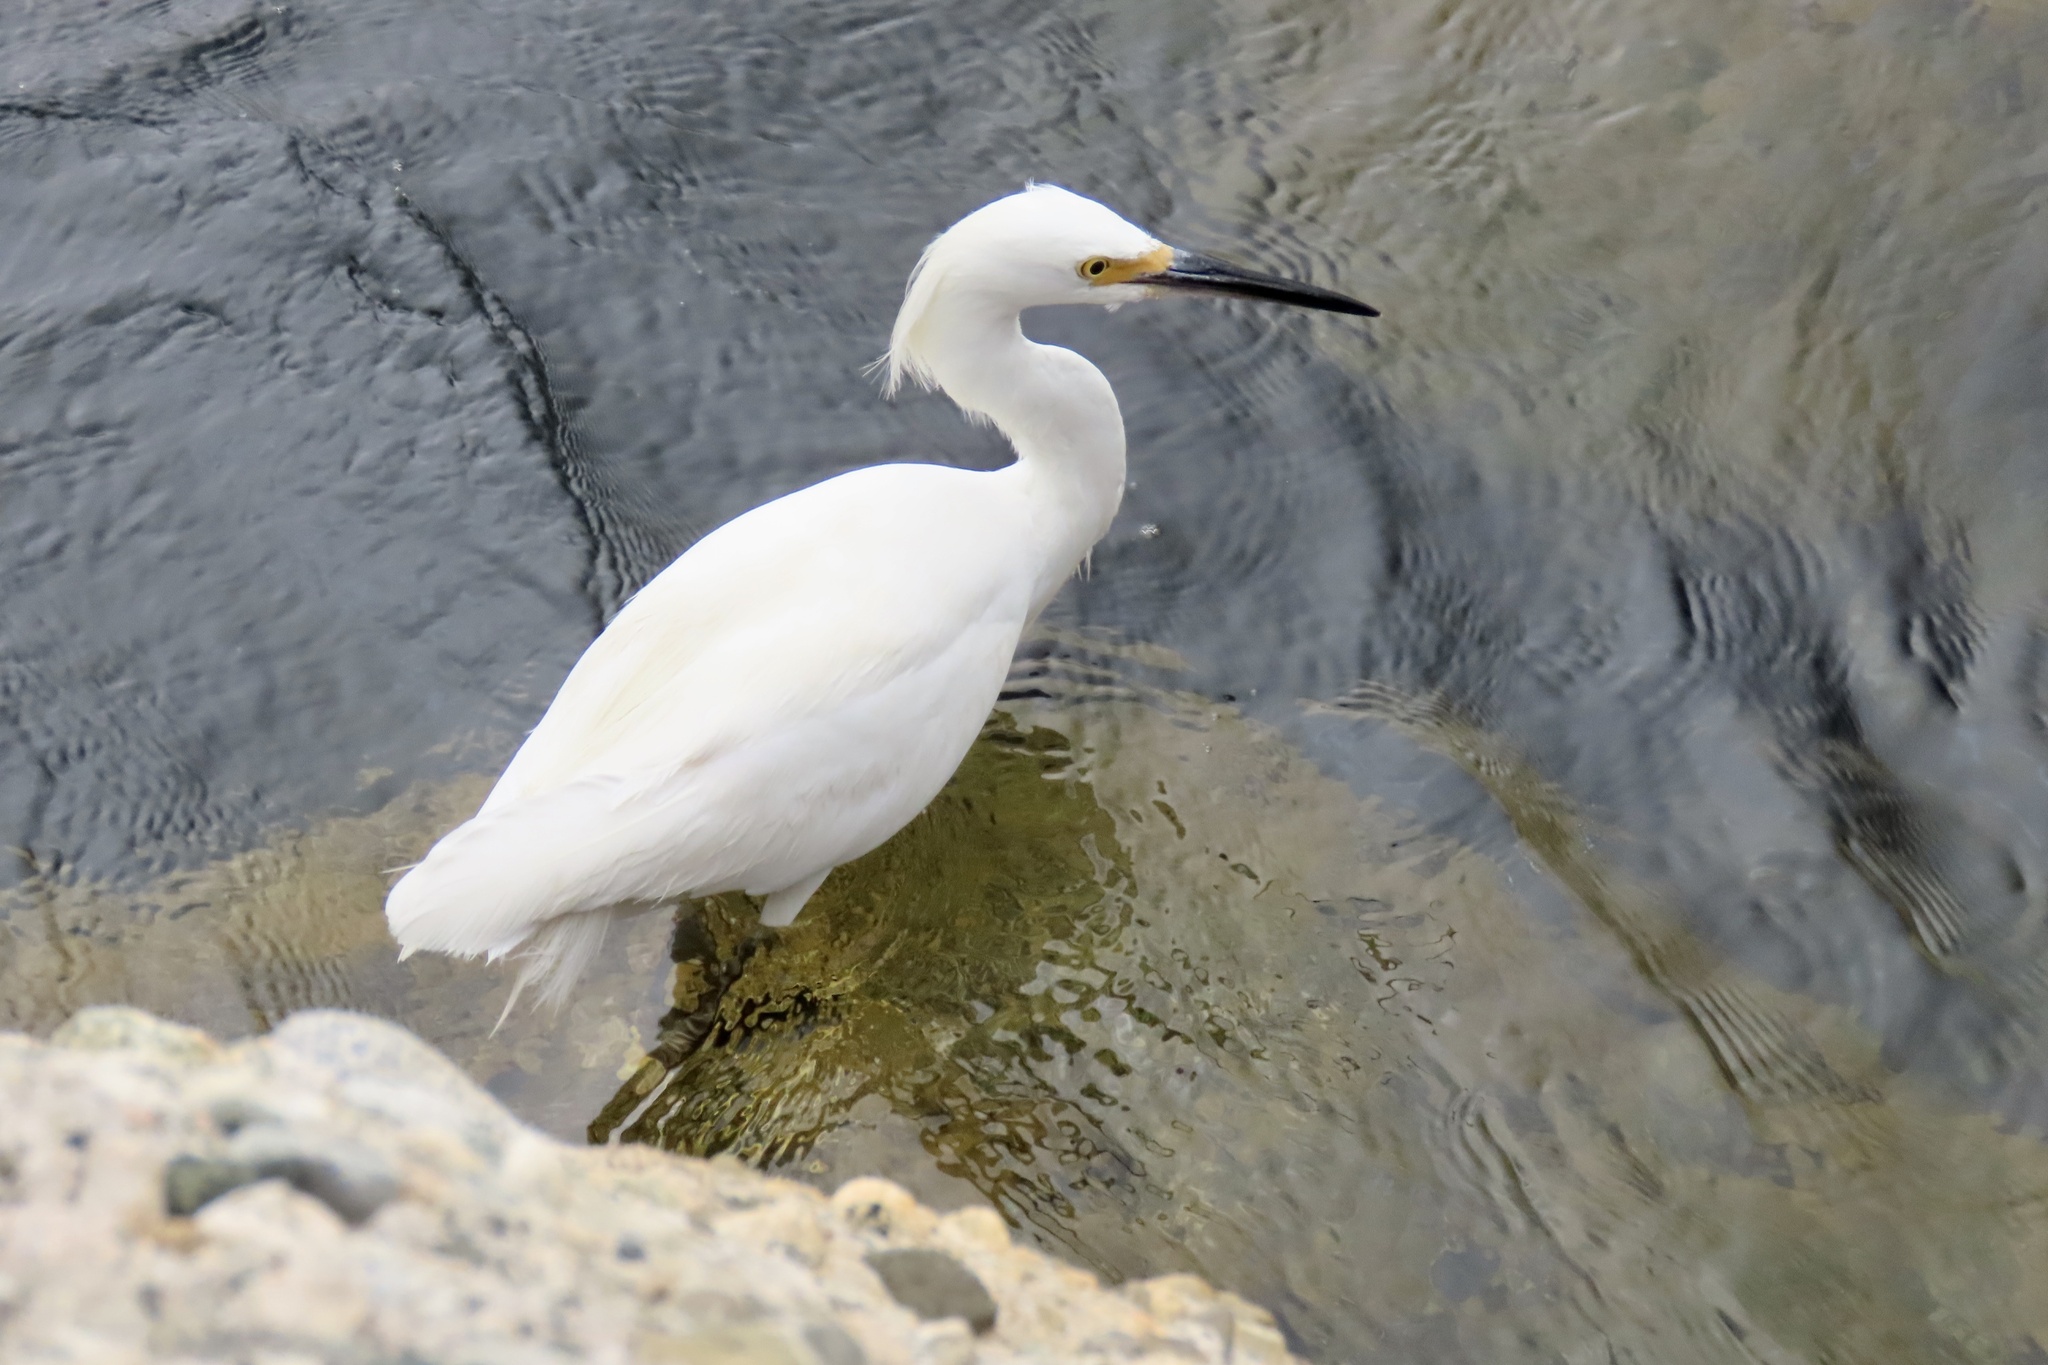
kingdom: Animalia
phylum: Chordata
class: Aves
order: Pelecaniformes
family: Ardeidae
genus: Egretta
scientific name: Egretta thula
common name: Snowy egret
